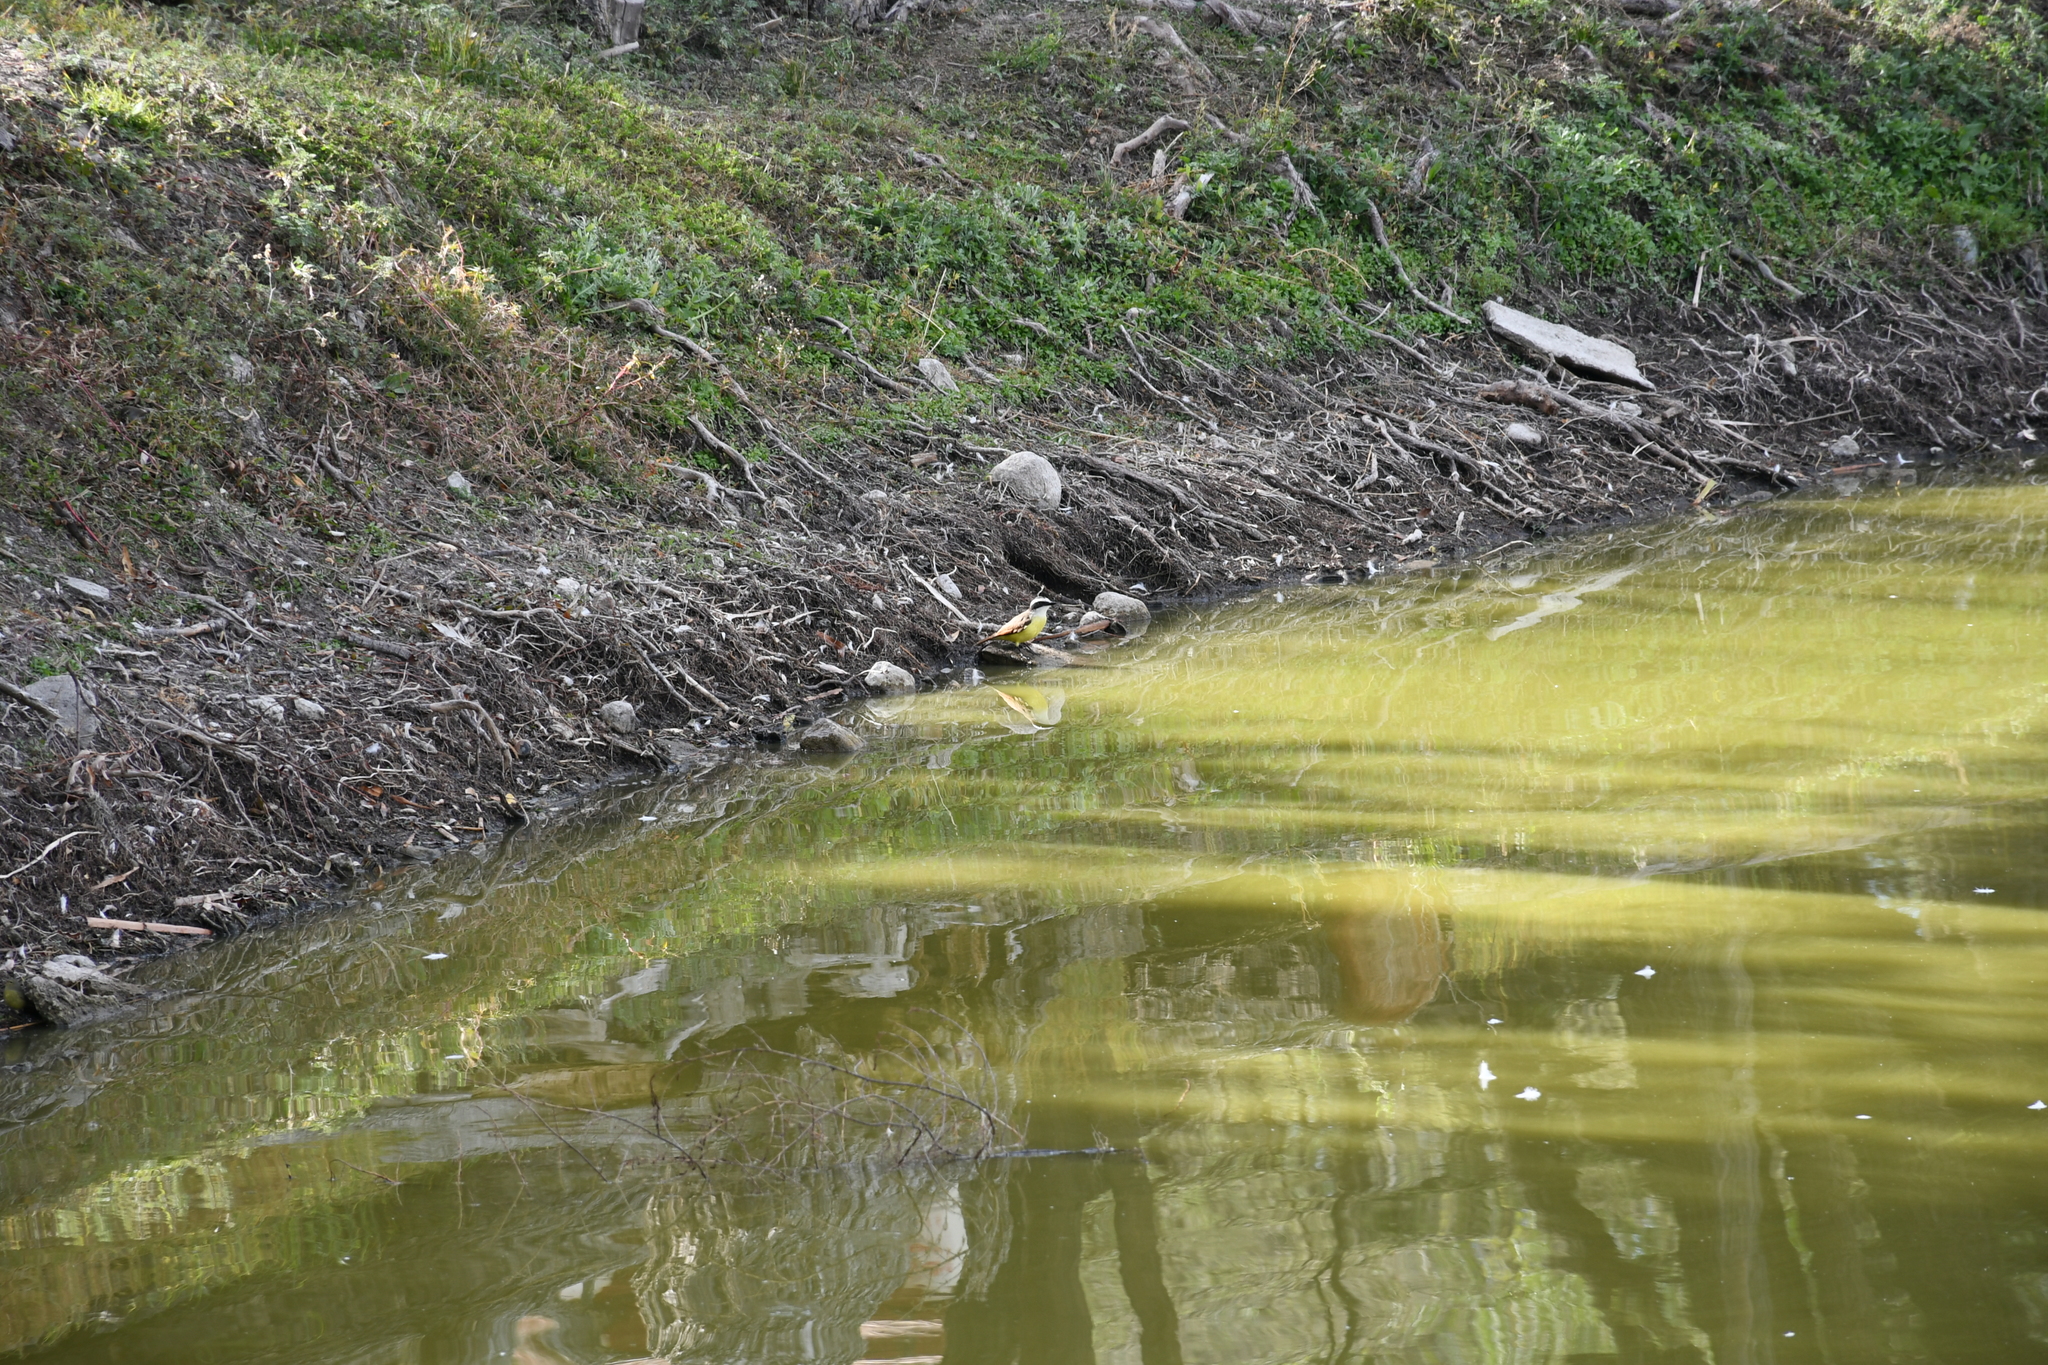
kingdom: Animalia
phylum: Chordata
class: Aves
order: Passeriformes
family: Tyrannidae
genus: Myiozetetes
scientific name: Myiozetetes similis
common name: Social flycatcher
